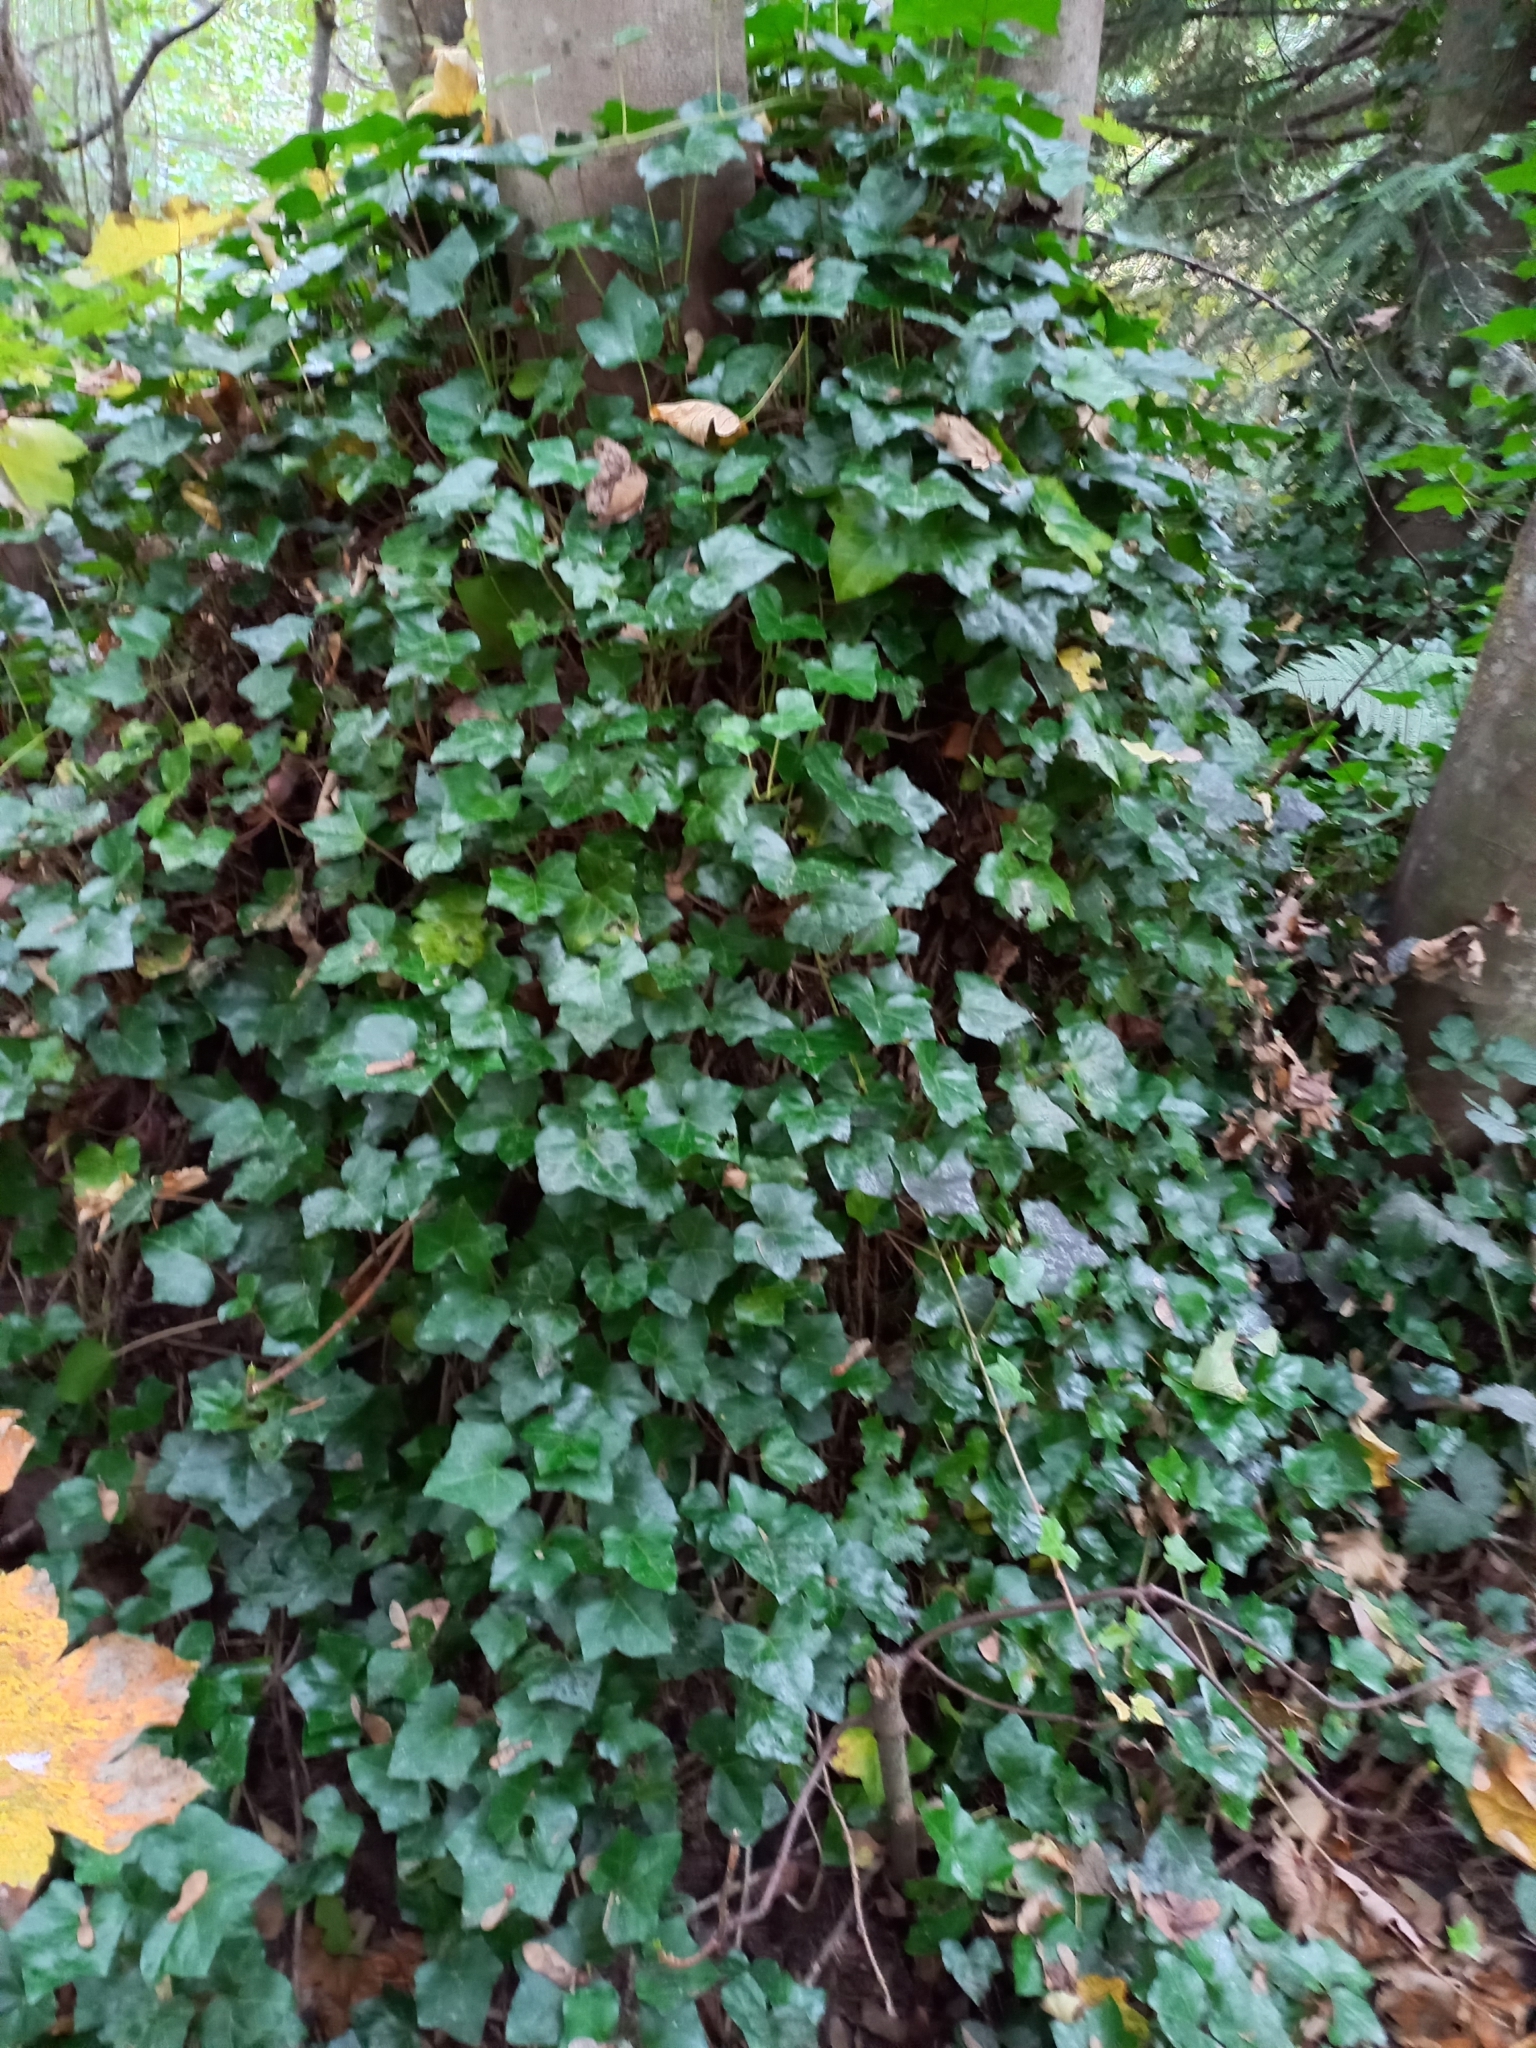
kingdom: Plantae
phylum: Tracheophyta
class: Magnoliopsida
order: Apiales
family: Araliaceae
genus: Hedera
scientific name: Hedera helix
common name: Ivy
